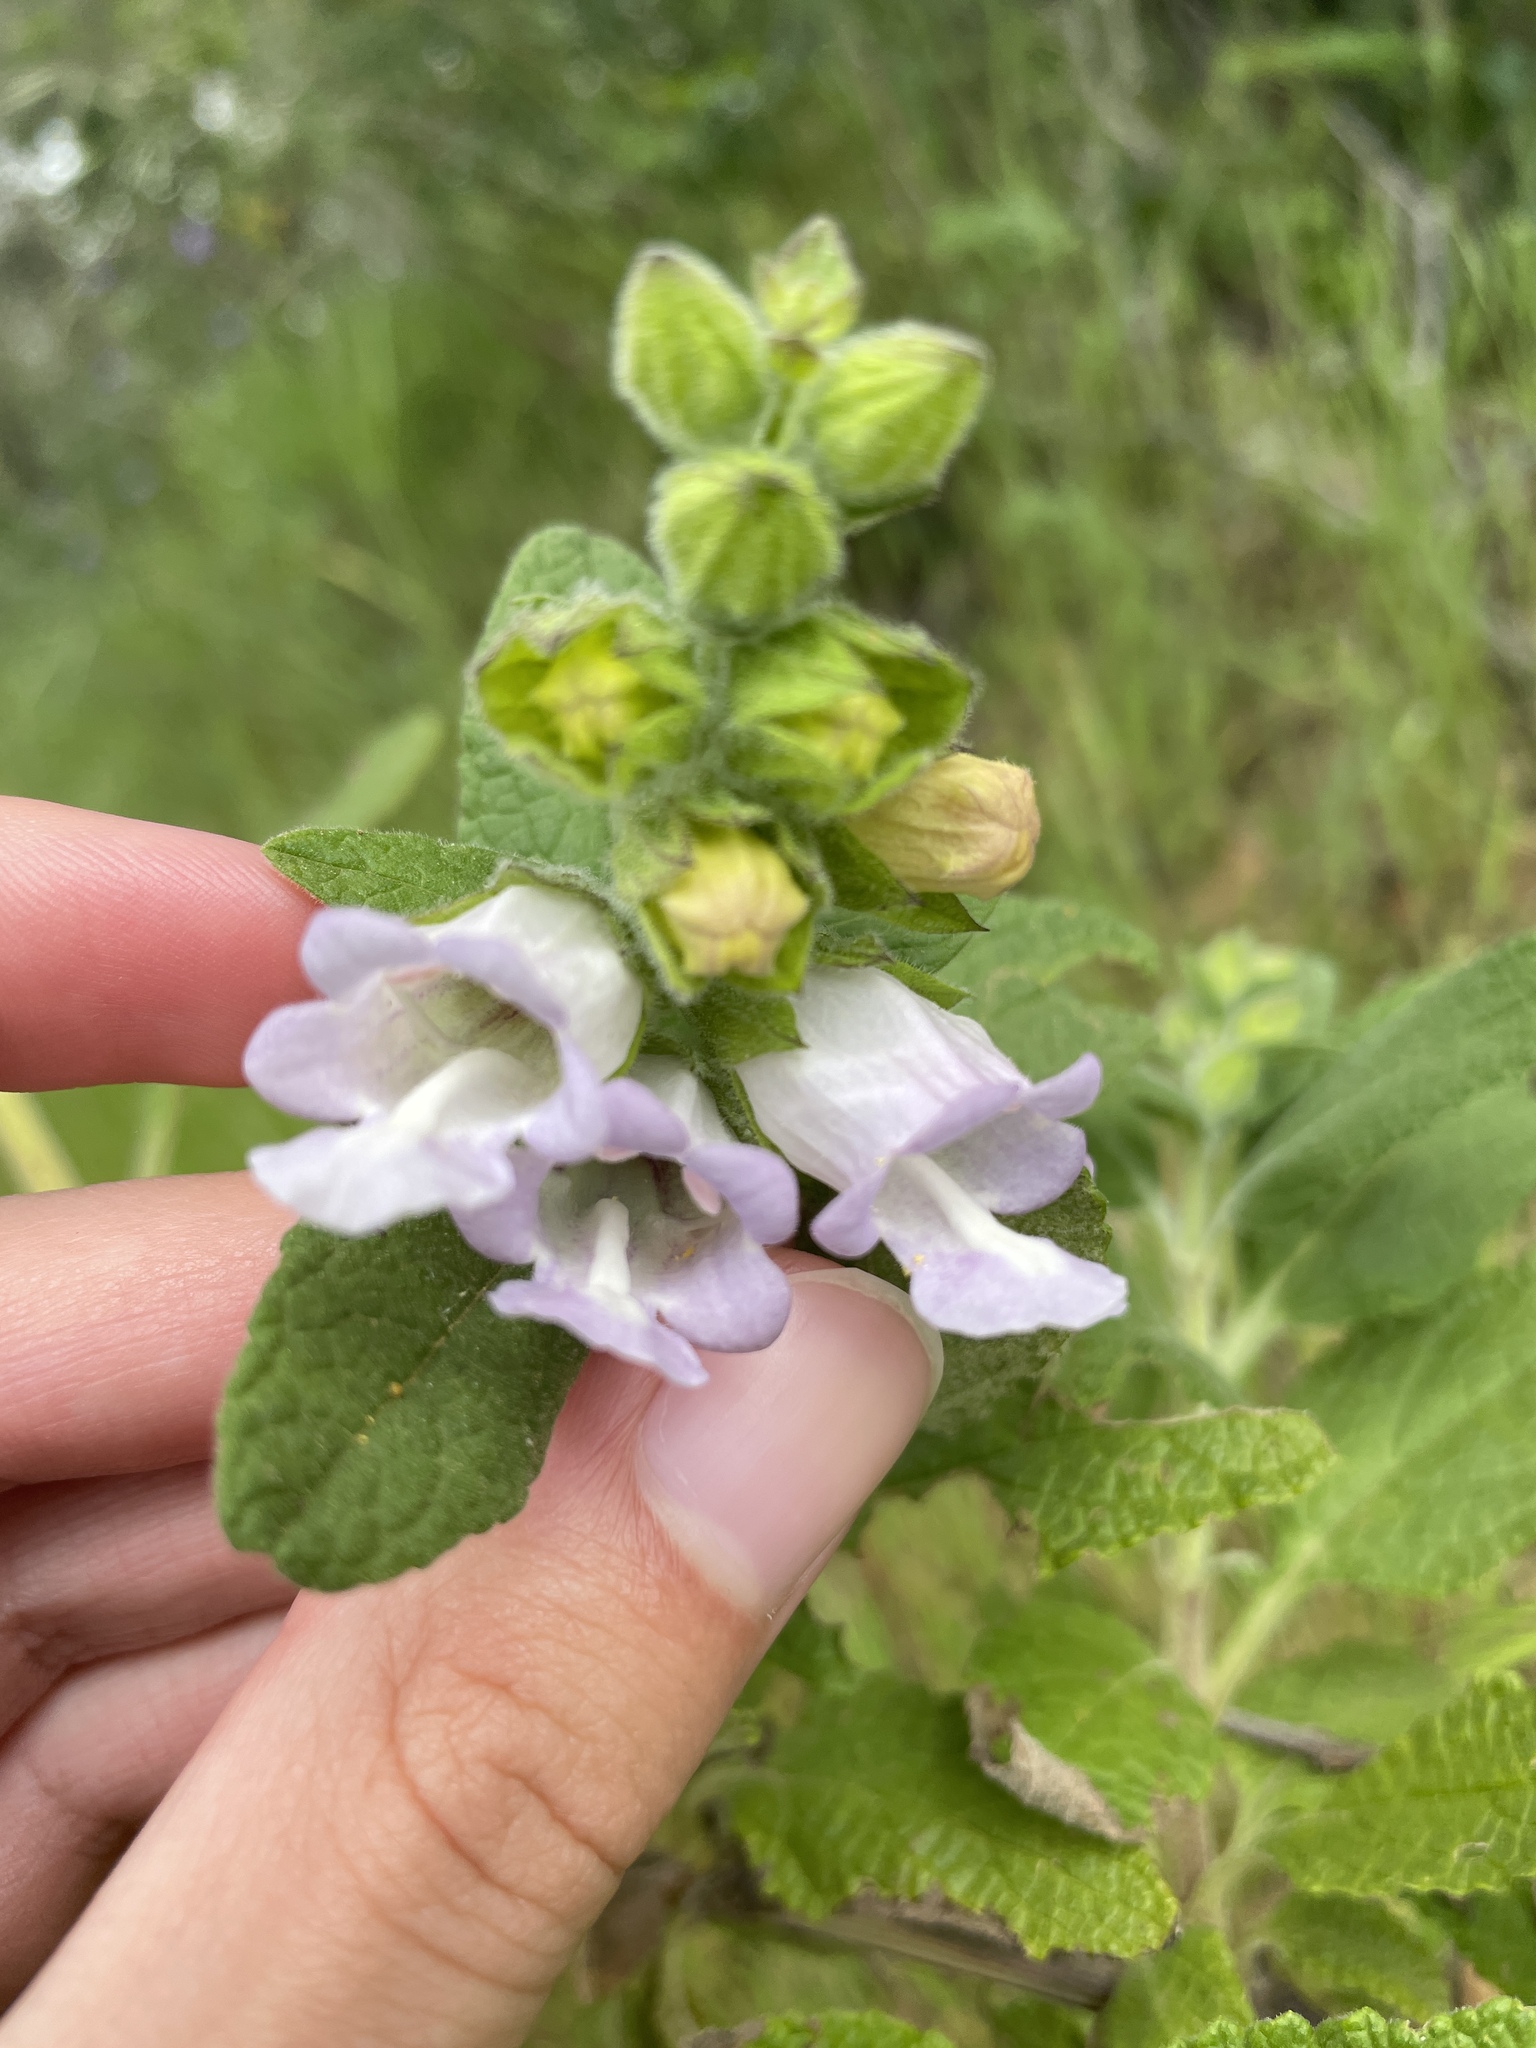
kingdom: Plantae
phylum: Tracheophyta
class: Magnoliopsida
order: Lamiales
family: Lamiaceae
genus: Lepechinia
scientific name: Lepechinia calycina
